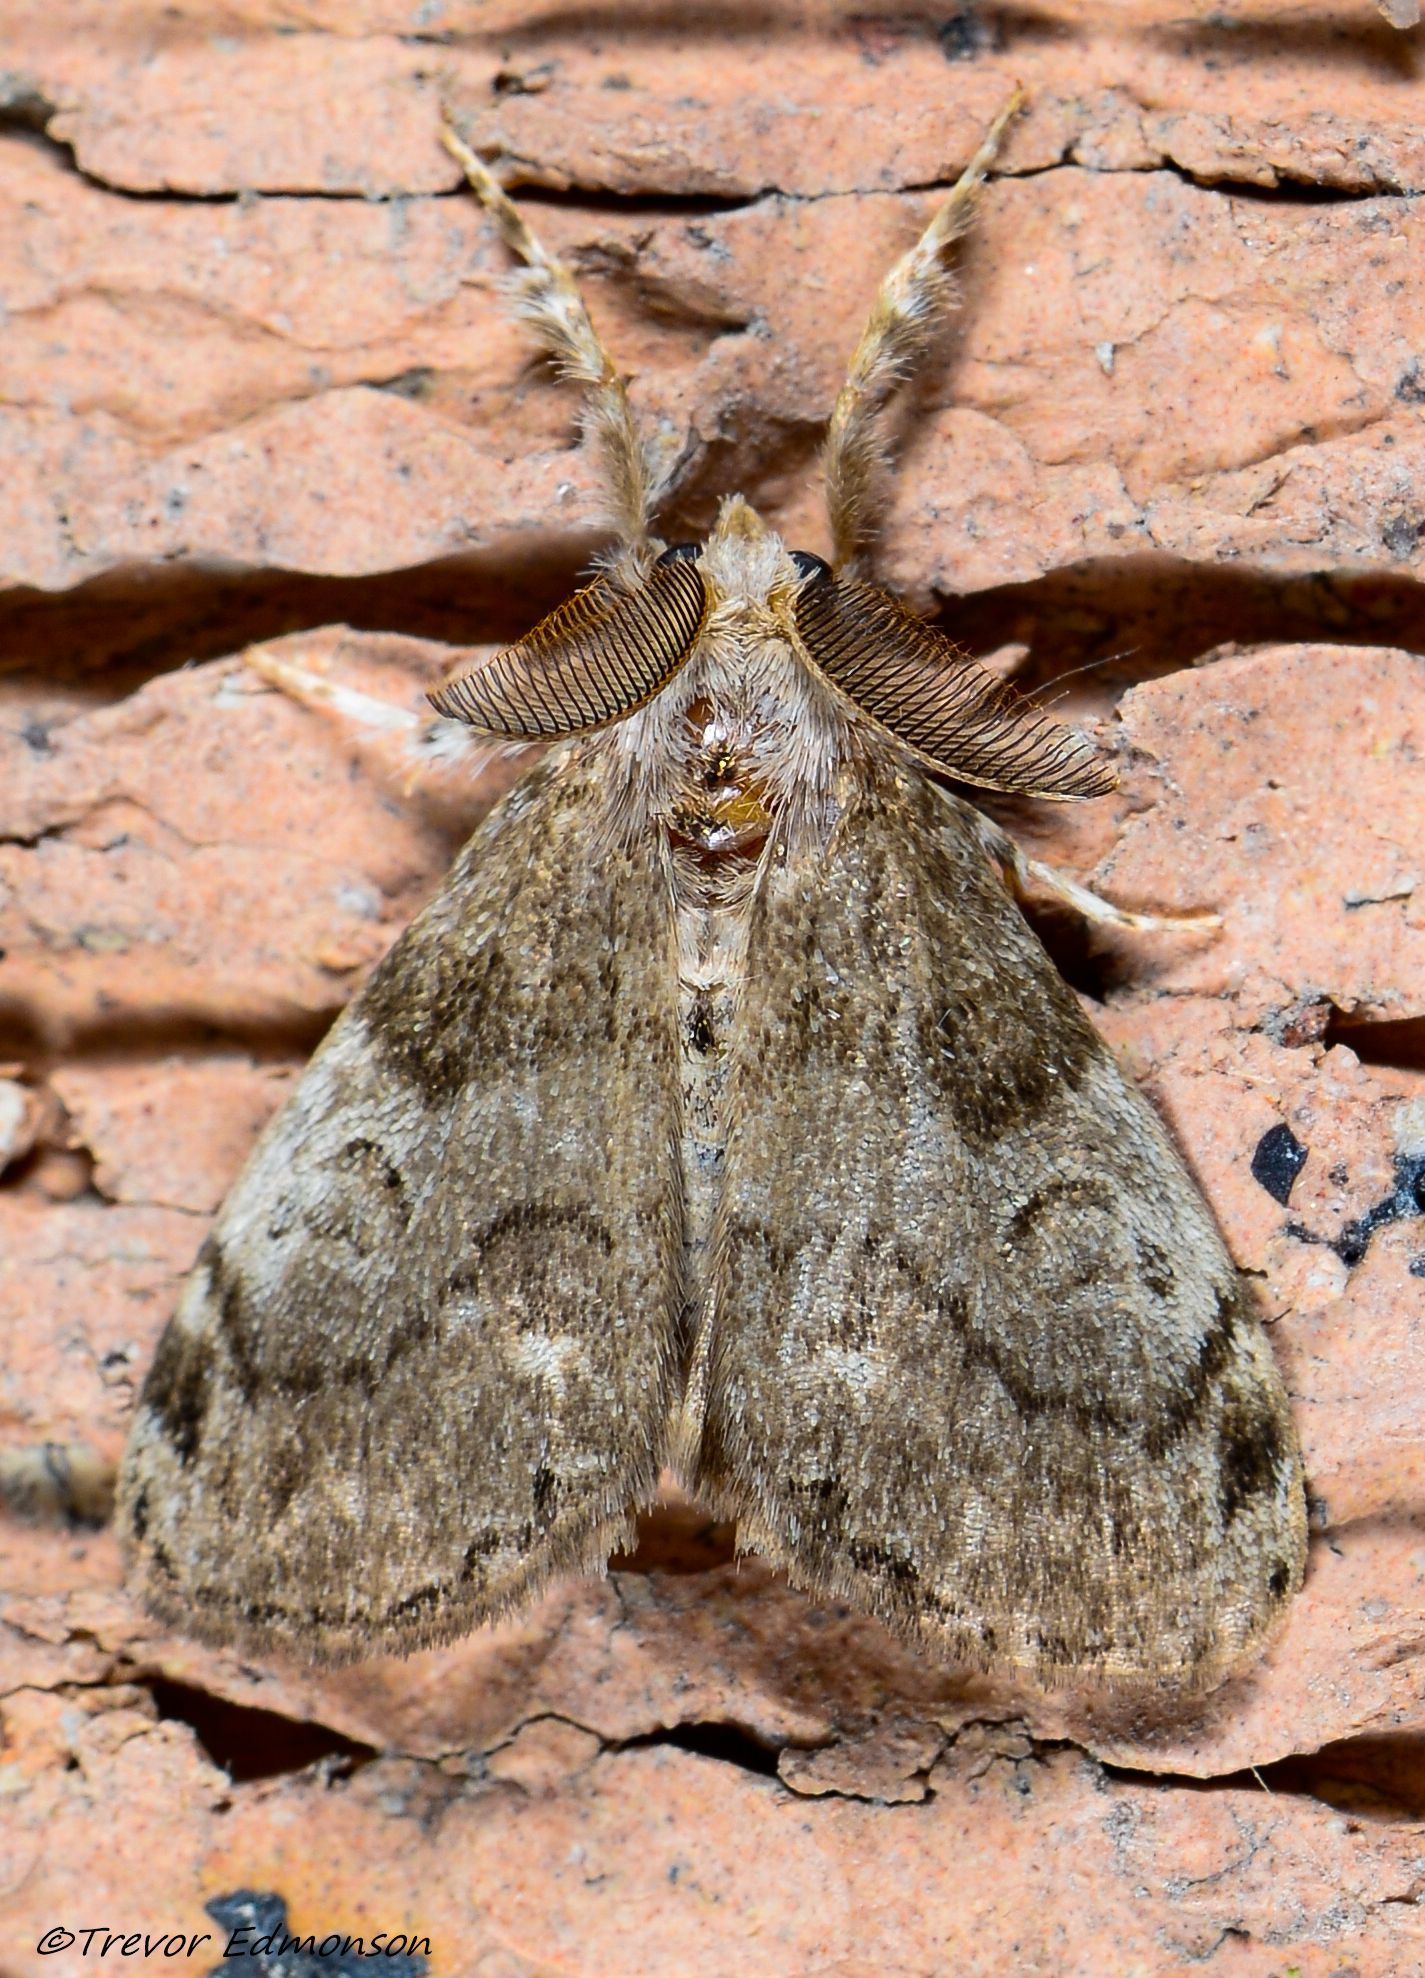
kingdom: Animalia
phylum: Arthropoda
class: Insecta
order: Lepidoptera
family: Erebidae
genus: Orgyia
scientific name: Orgyia leucostigma
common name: White-marked tussock moth
